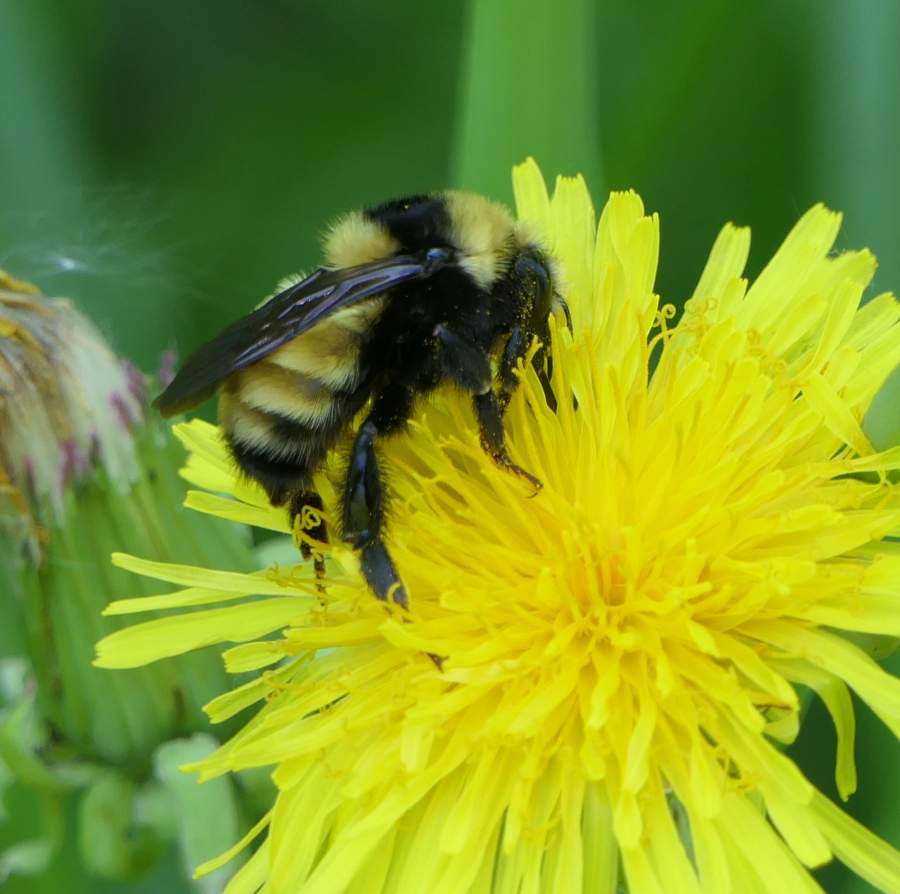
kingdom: Animalia
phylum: Arthropoda
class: Insecta
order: Hymenoptera
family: Apidae
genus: Bombus
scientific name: Bombus borealis
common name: Northern amber bumble bee
